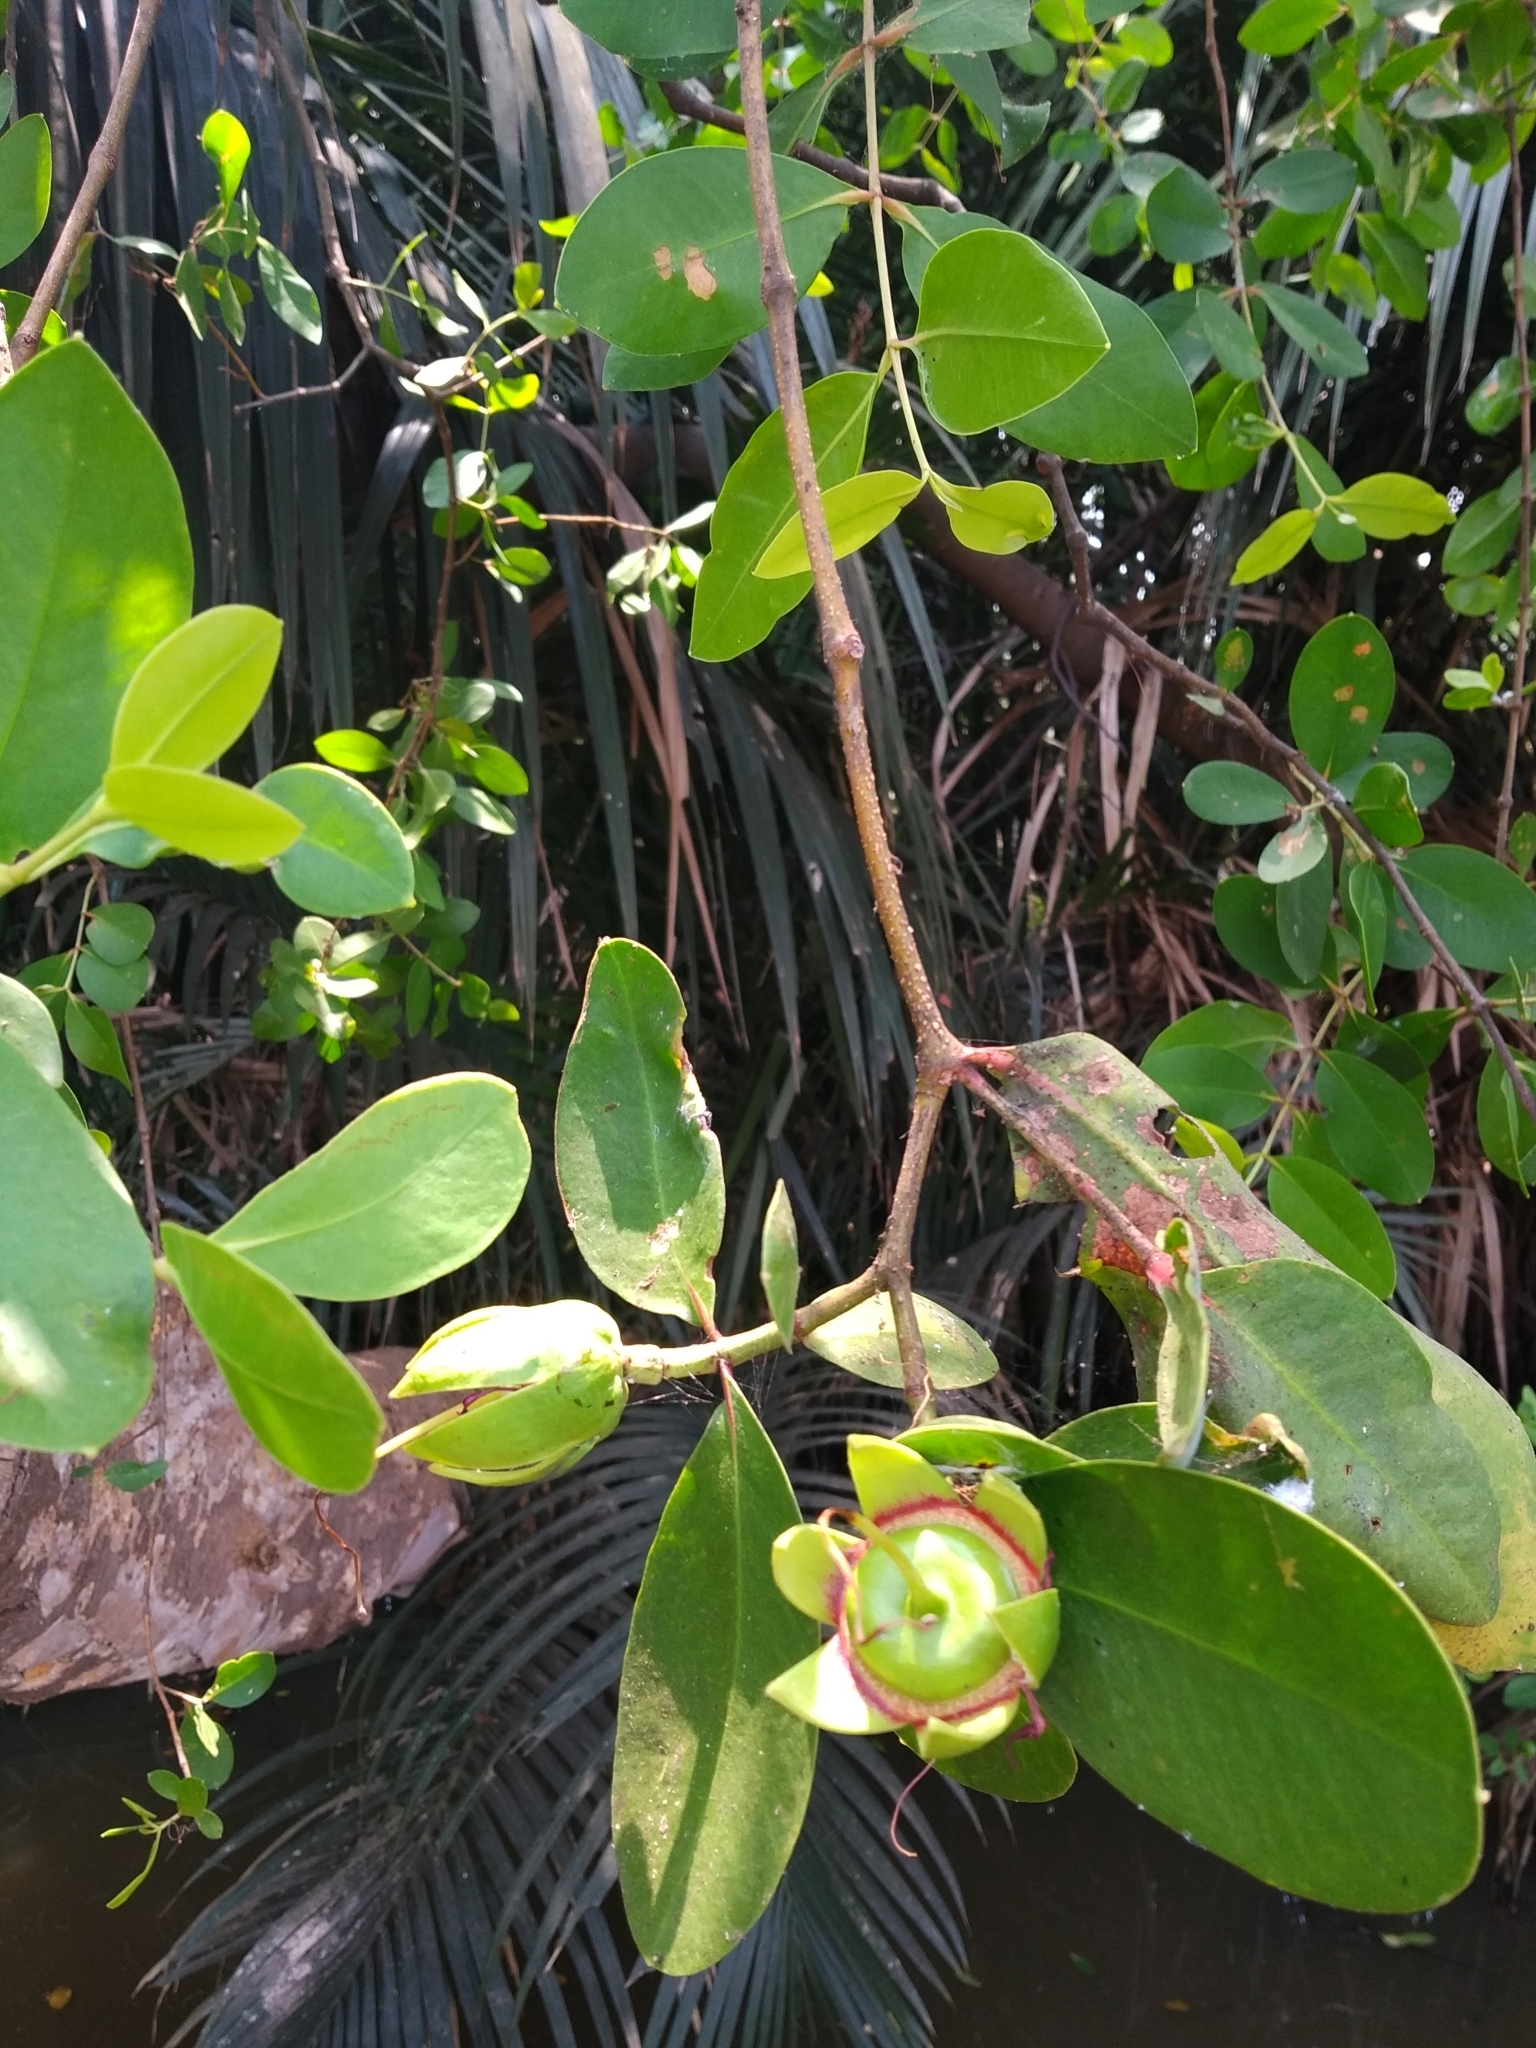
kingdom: Plantae
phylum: Tracheophyta
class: Magnoliopsida
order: Myrtales
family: Lythraceae
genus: Sonneratia
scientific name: Sonneratia caseolaris
